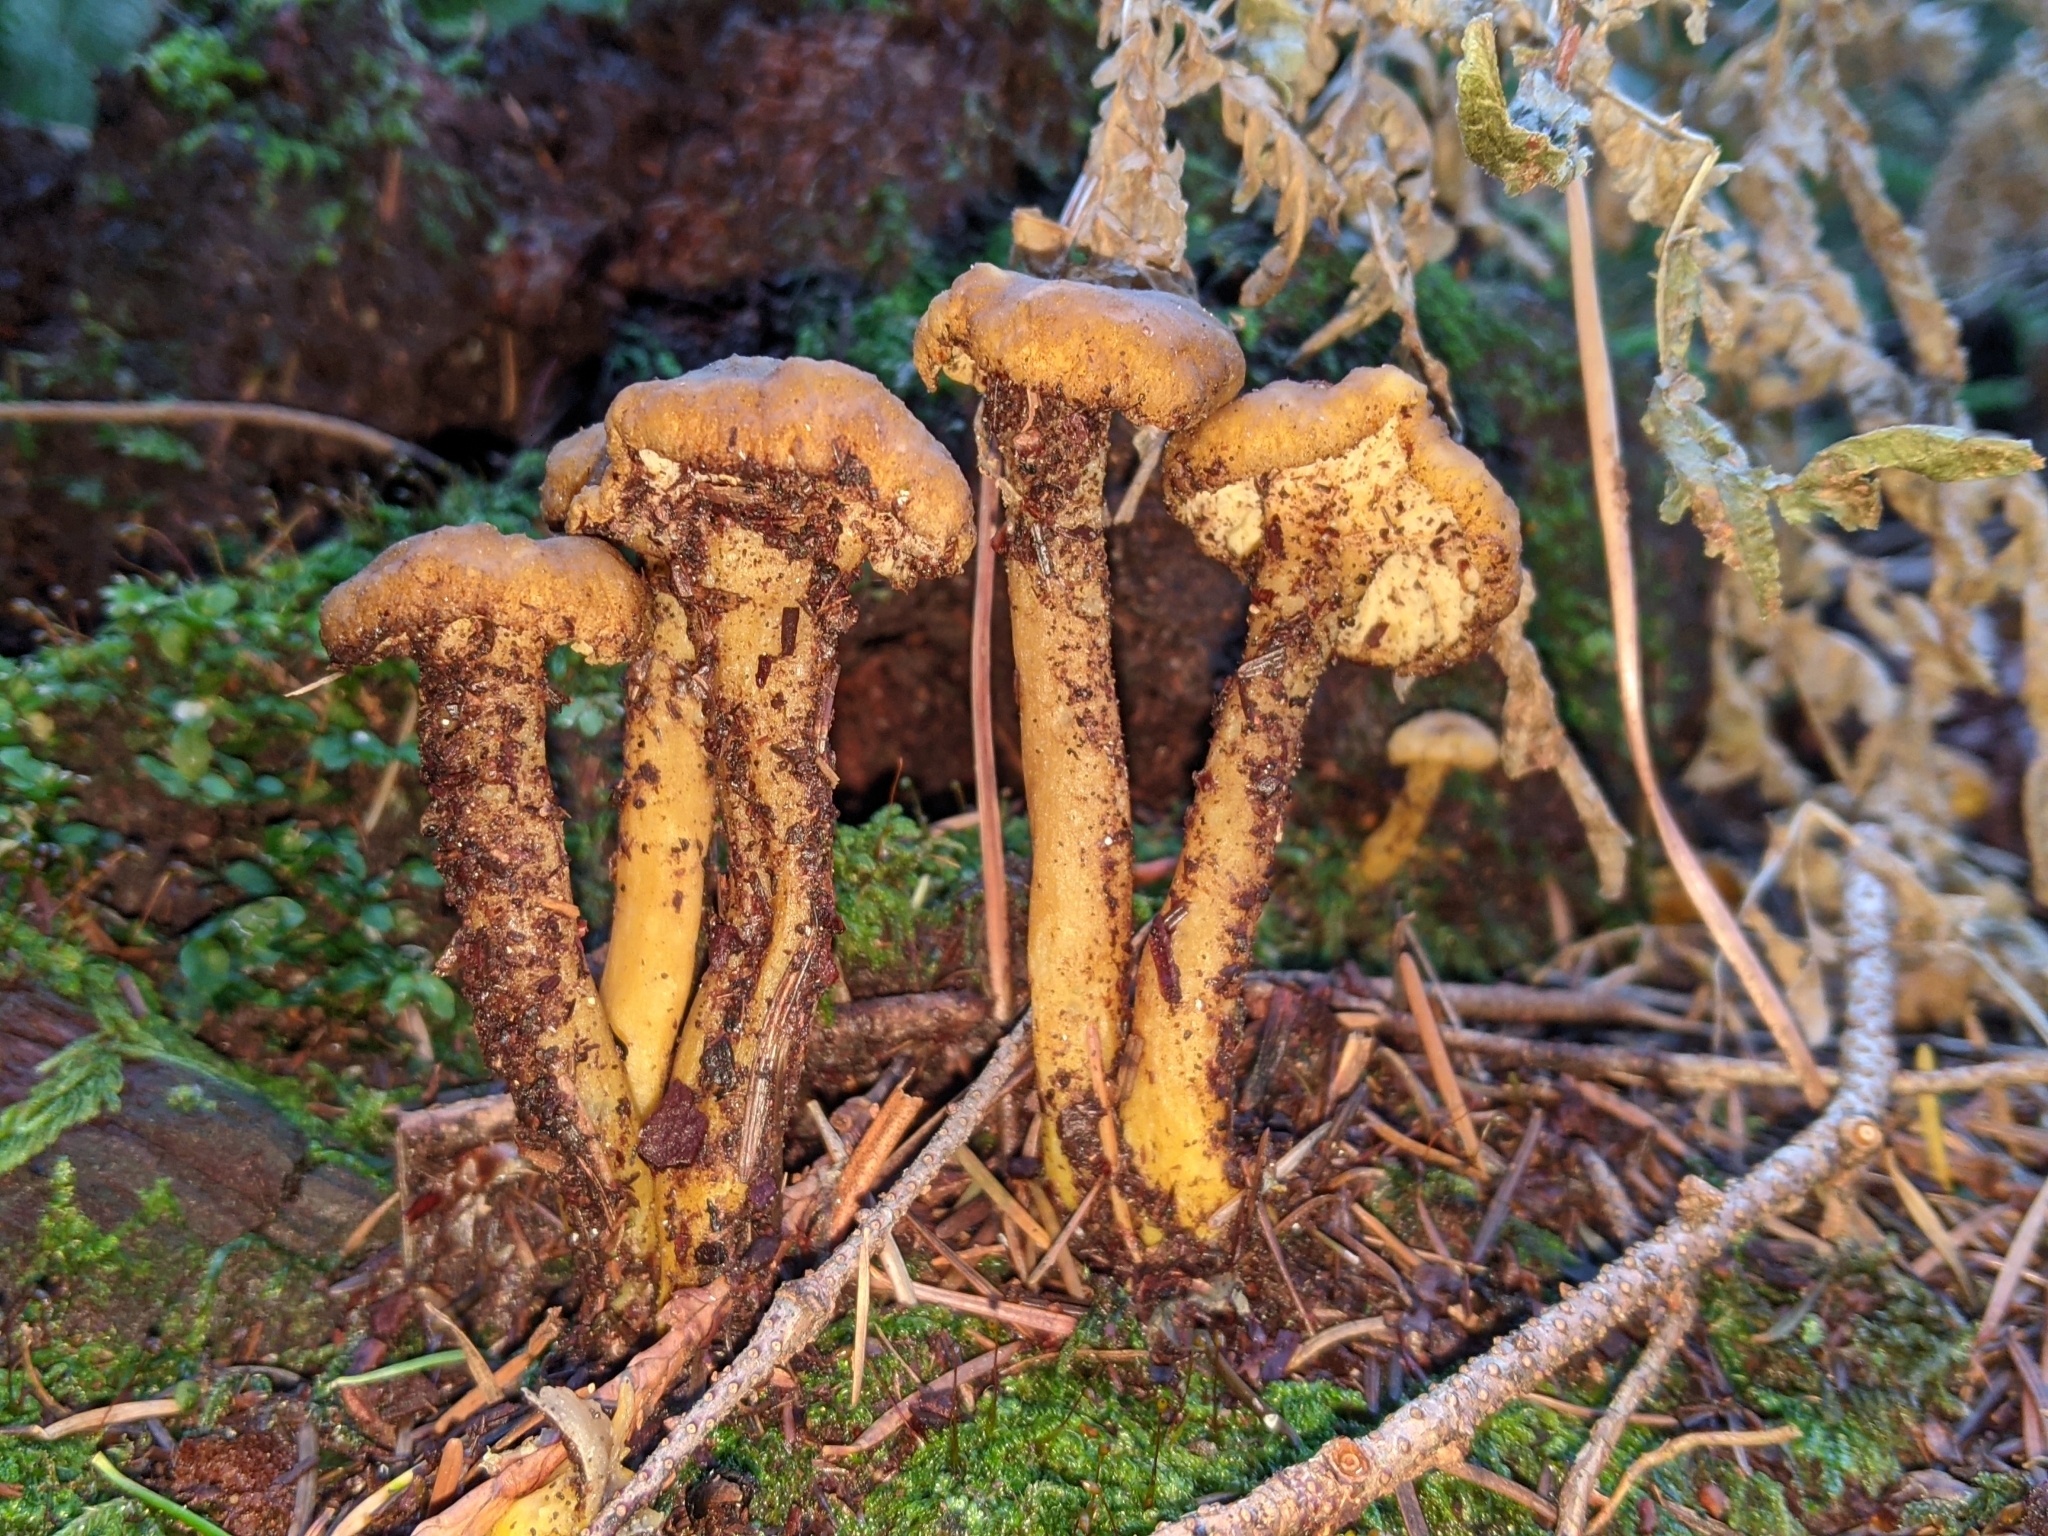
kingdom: Fungi
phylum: Basidiomycota
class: Agaricomycetes
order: Cantharellales
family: Hydnaceae
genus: Craterellus
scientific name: Craterellus tubaeformis
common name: Yellowfoot
